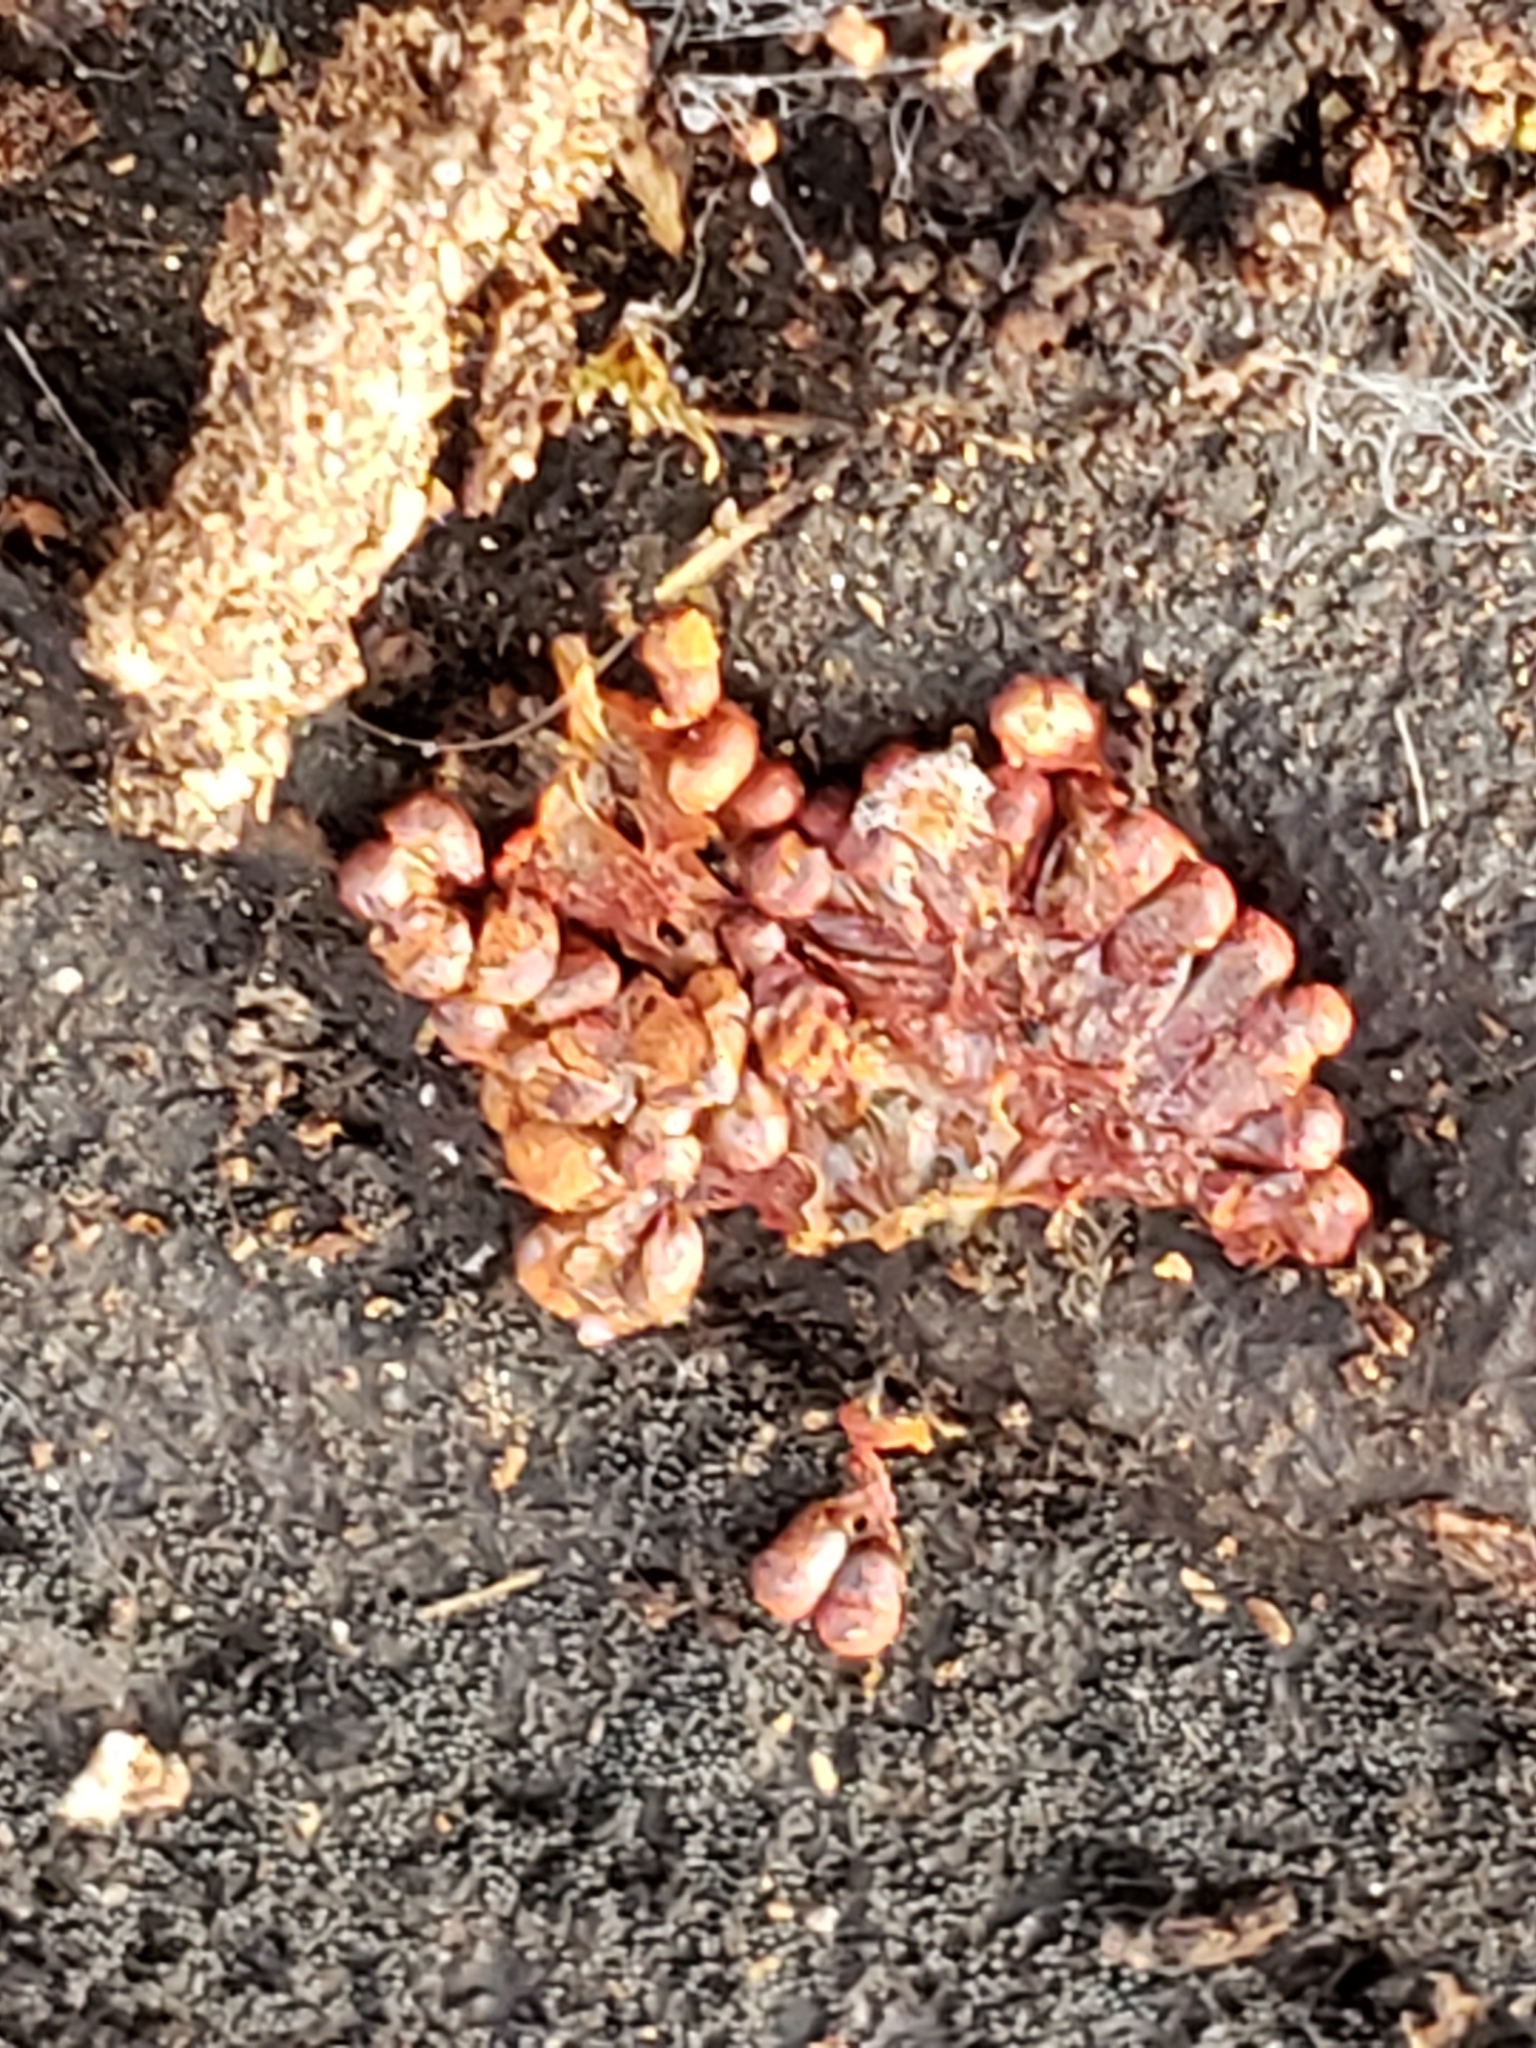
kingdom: Protozoa
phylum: Mycetozoa
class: Myxomycetes
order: Trichiales
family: Trichiaceae
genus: Metatrichia
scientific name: Metatrichia vesparia
